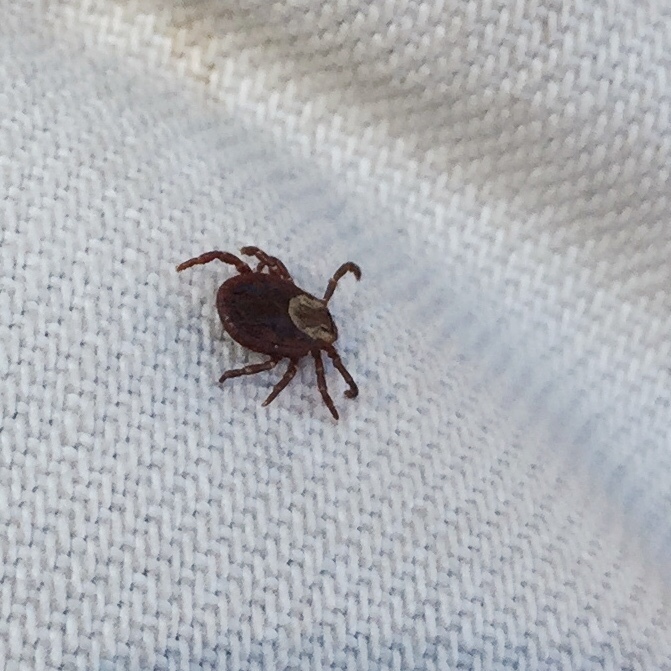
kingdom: Animalia
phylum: Arthropoda
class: Arachnida
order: Ixodida
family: Ixodidae
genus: Dermacentor
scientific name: Dermacentor variabilis
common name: American dog tick
